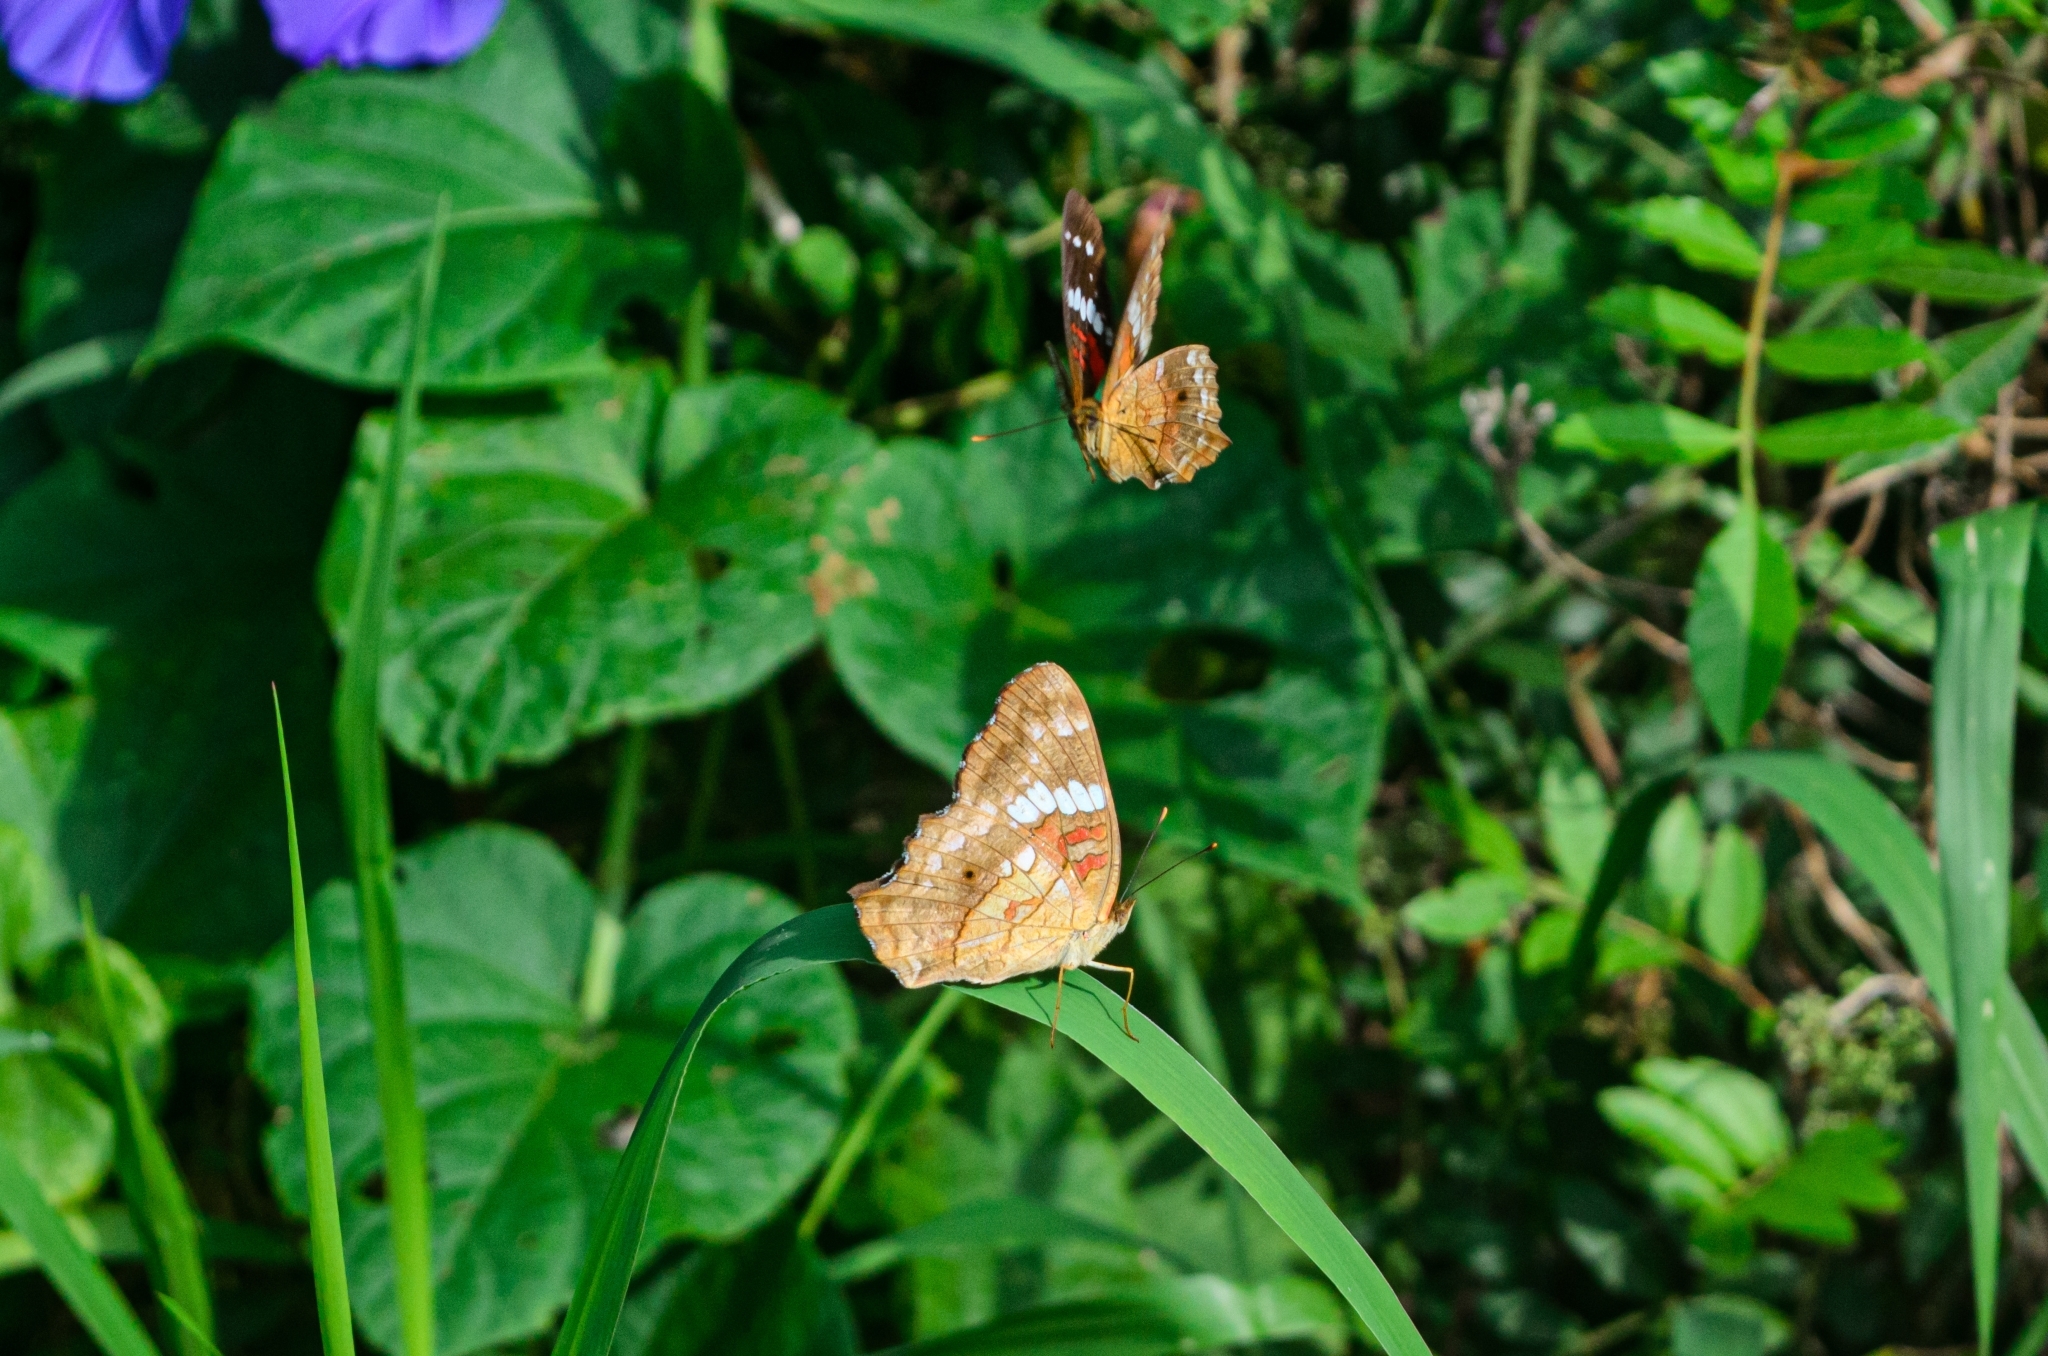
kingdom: Animalia
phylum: Arthropoda
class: Insecta
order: Lepidoptera
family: Nymphalidae
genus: Anartia
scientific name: Anartia amathea
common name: Red peacock
